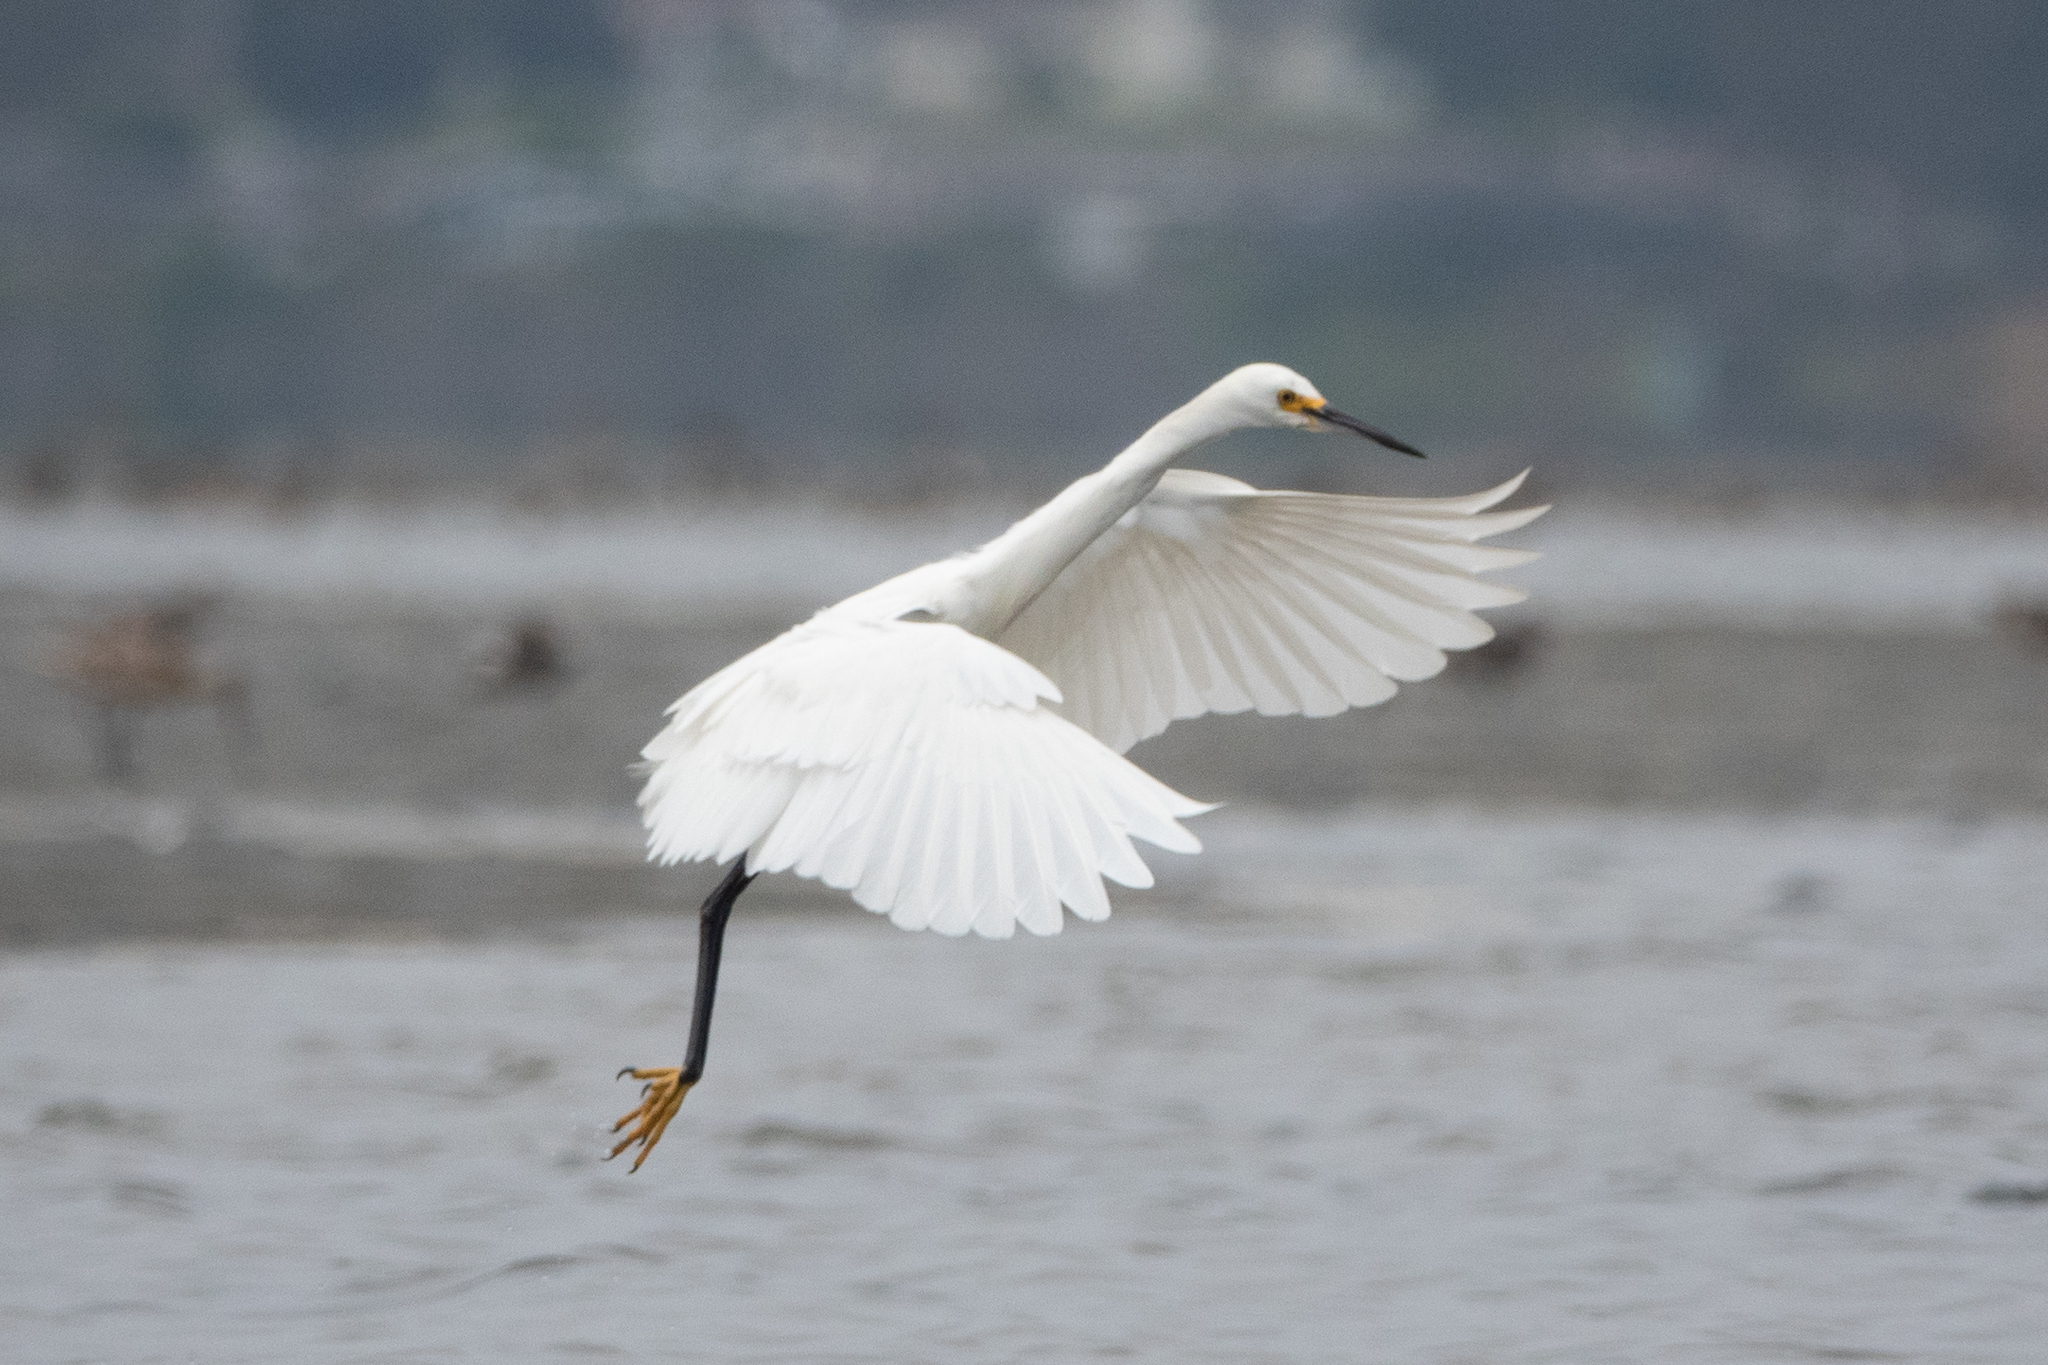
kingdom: Animalia
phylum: Chordata
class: Aves
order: Pelecaniformes
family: Ardeidae
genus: Egretta
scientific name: Egretta thula
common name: Snowy egret
